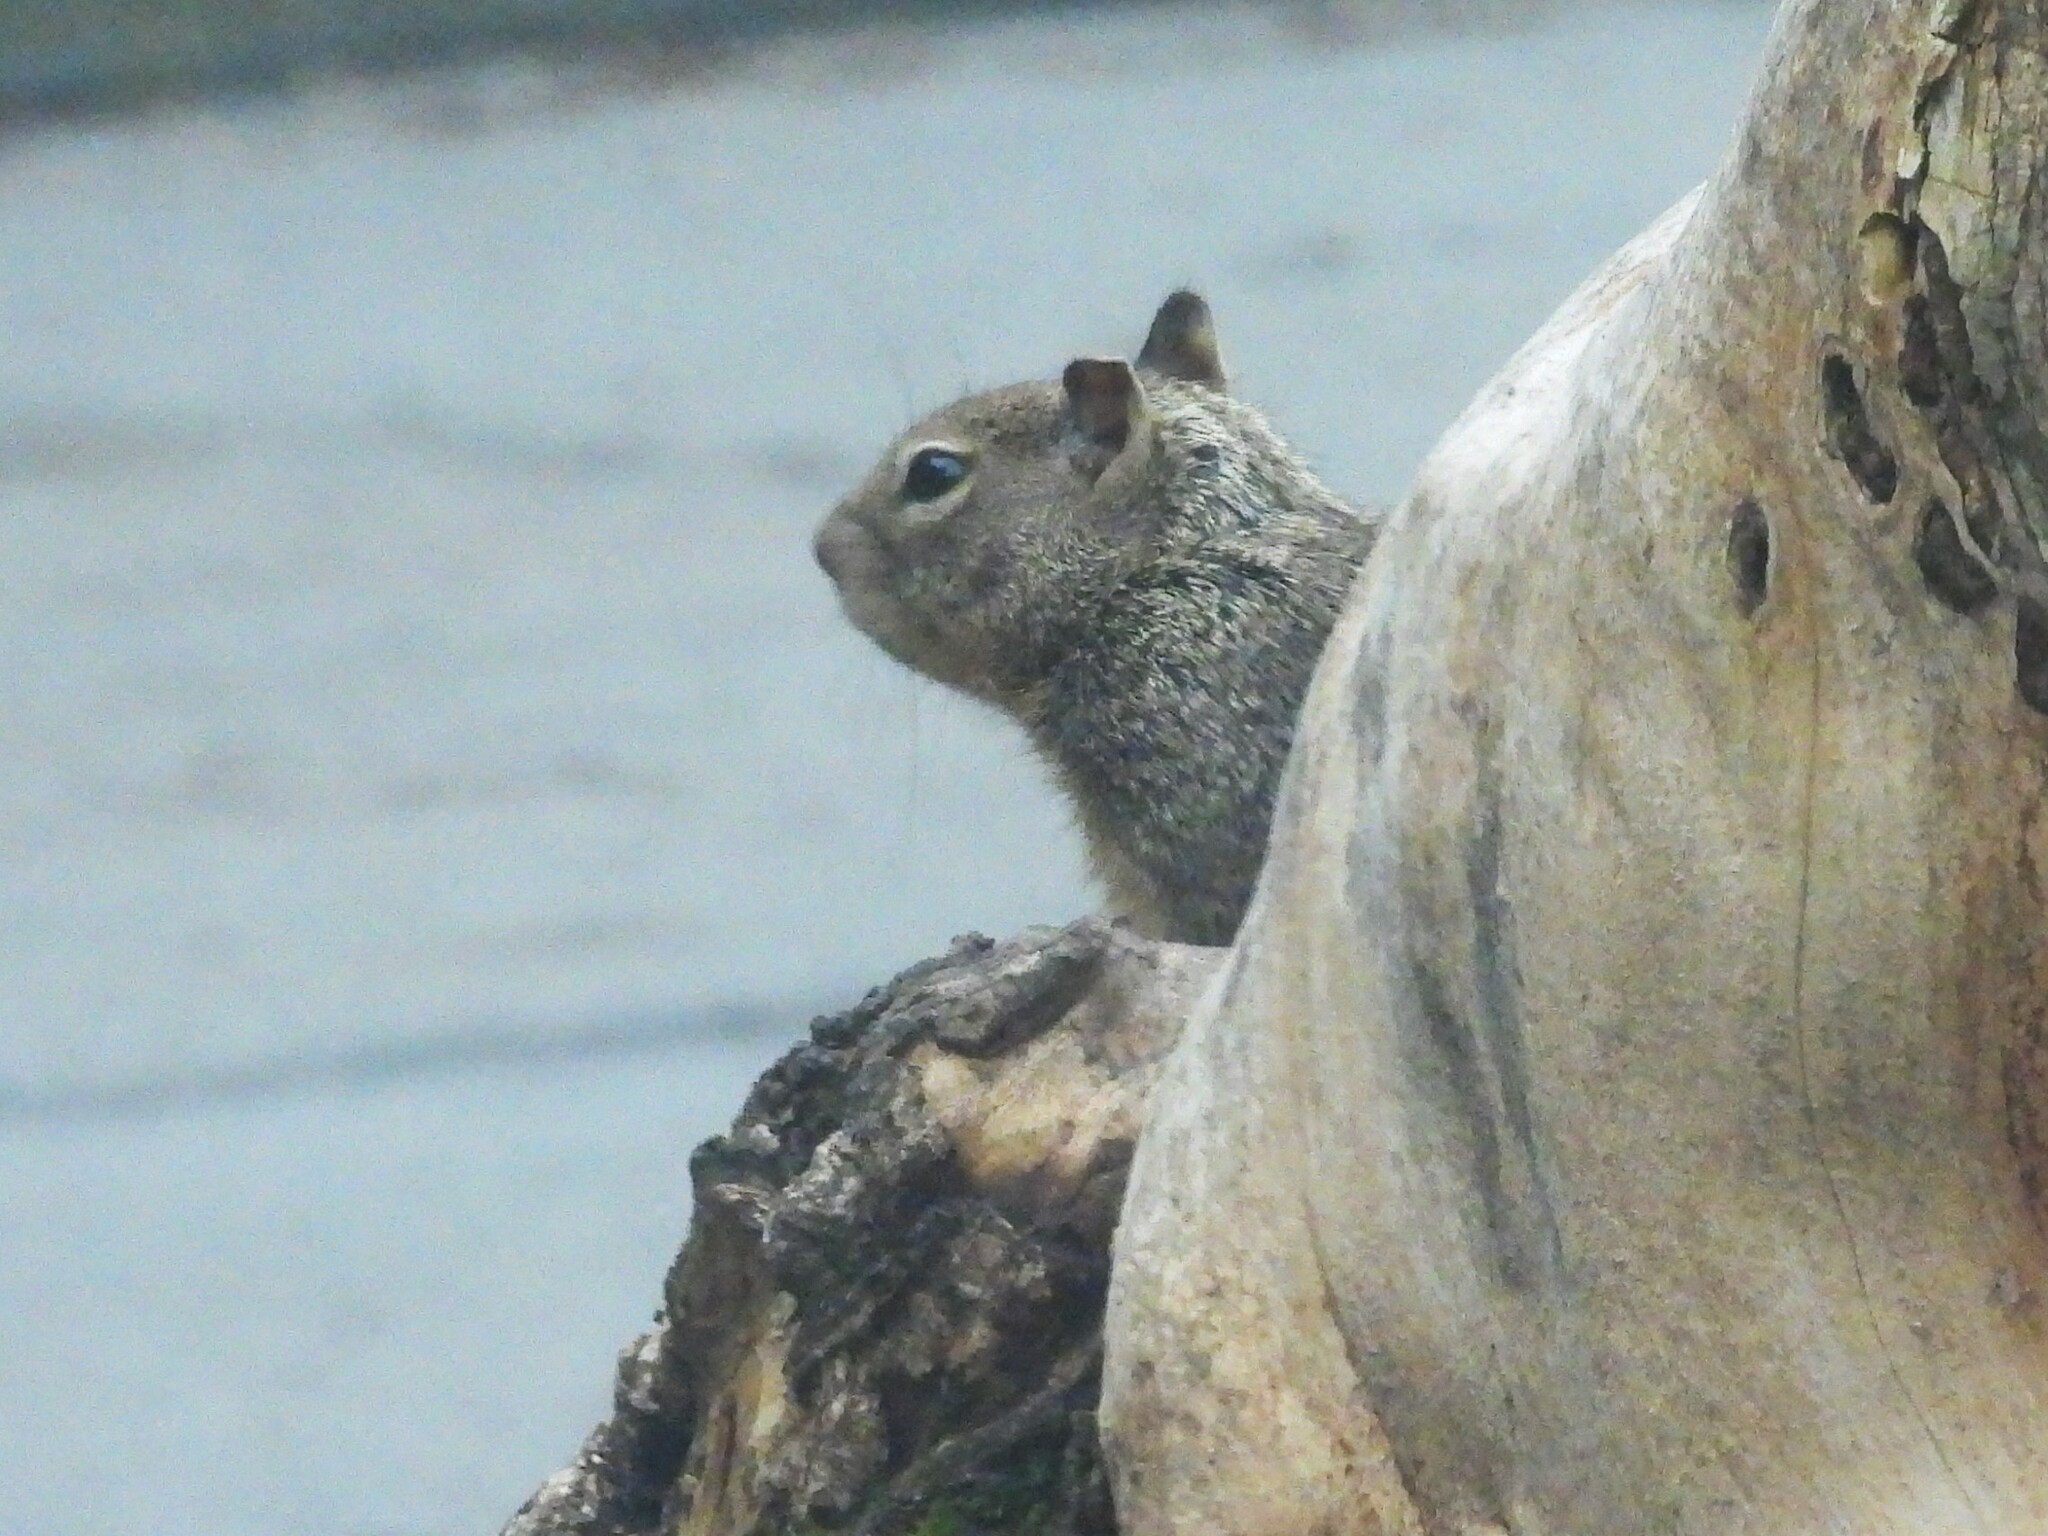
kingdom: Animalia
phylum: Chordata
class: Mammalia
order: Rodentia
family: Sciuridae
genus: Otospermophilus
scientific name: Otospermophilus beecheyi
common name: California ground squirrel
